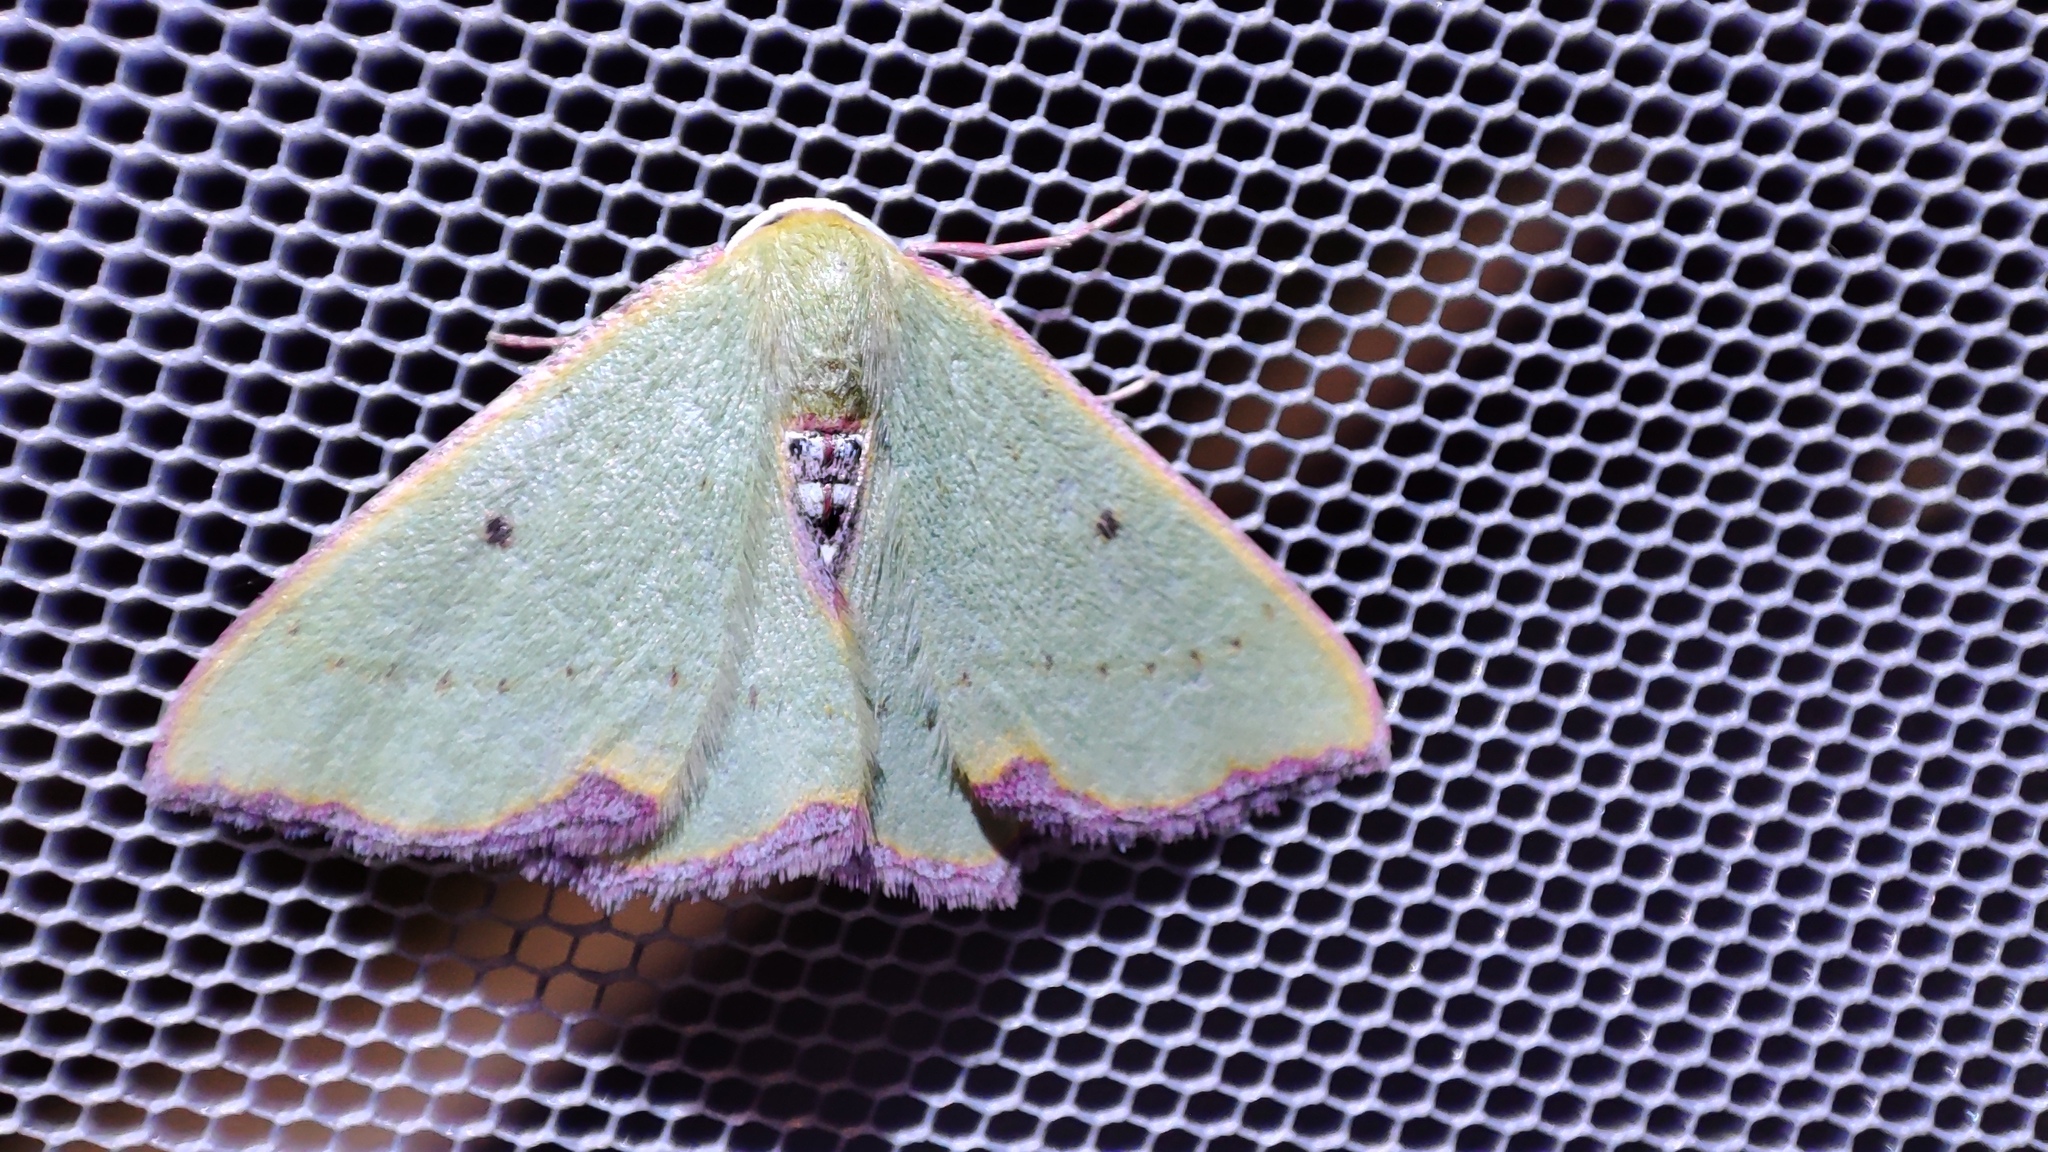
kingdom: Animalia
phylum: Arthropoda
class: Insecta
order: Lepidoptera
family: Geometridae
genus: Adicocrita
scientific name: Adicocrita discerpta
